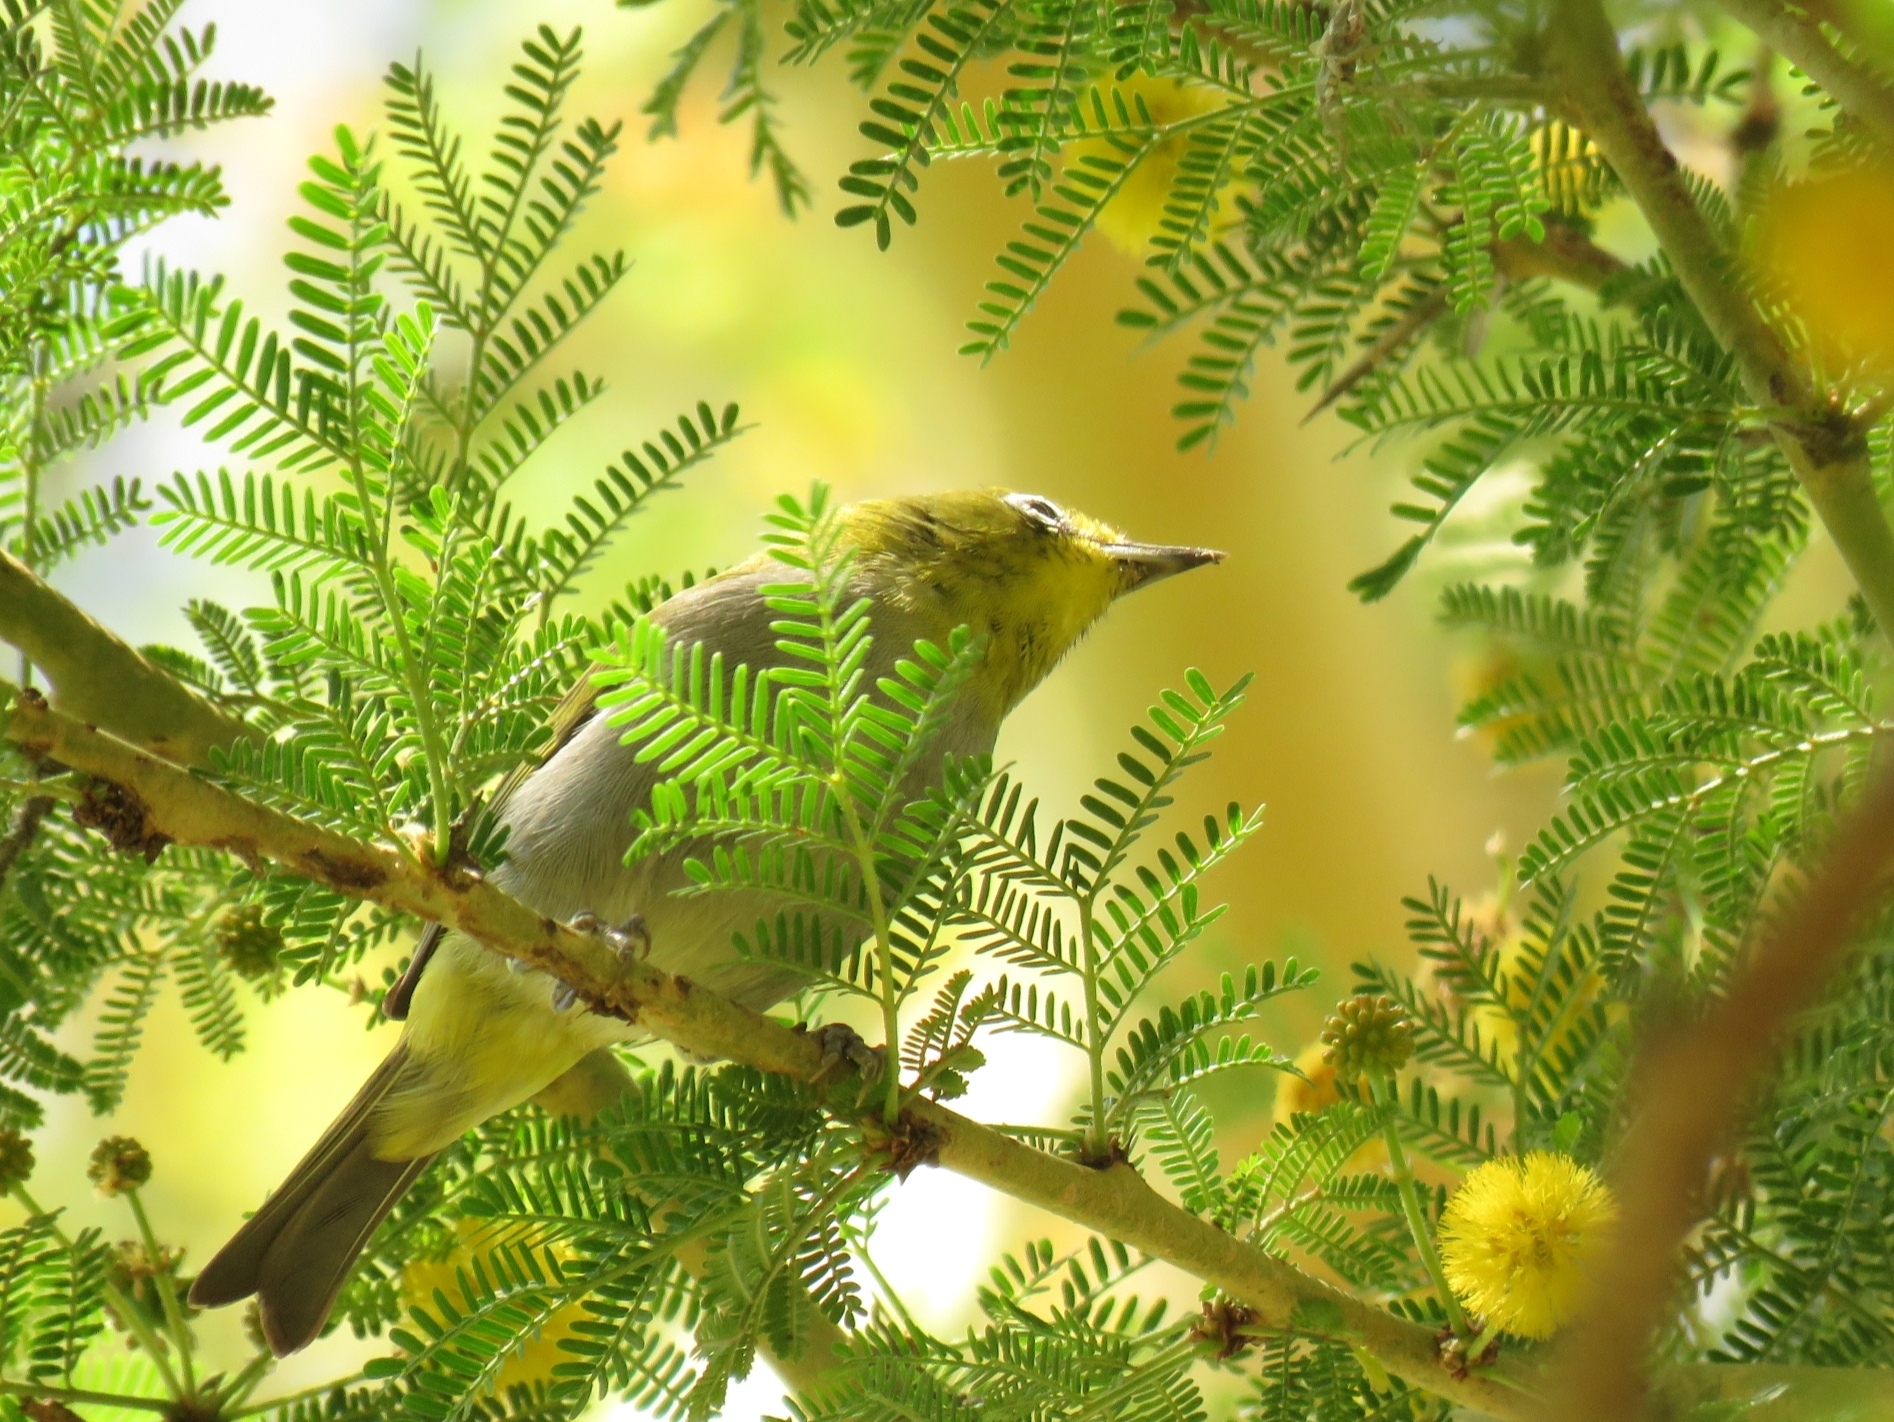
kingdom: Animalia
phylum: Chordata
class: Aves
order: Passeriformes
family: Zosteropidae
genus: Zosterops
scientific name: Zosterops virens
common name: Cape white-eye
